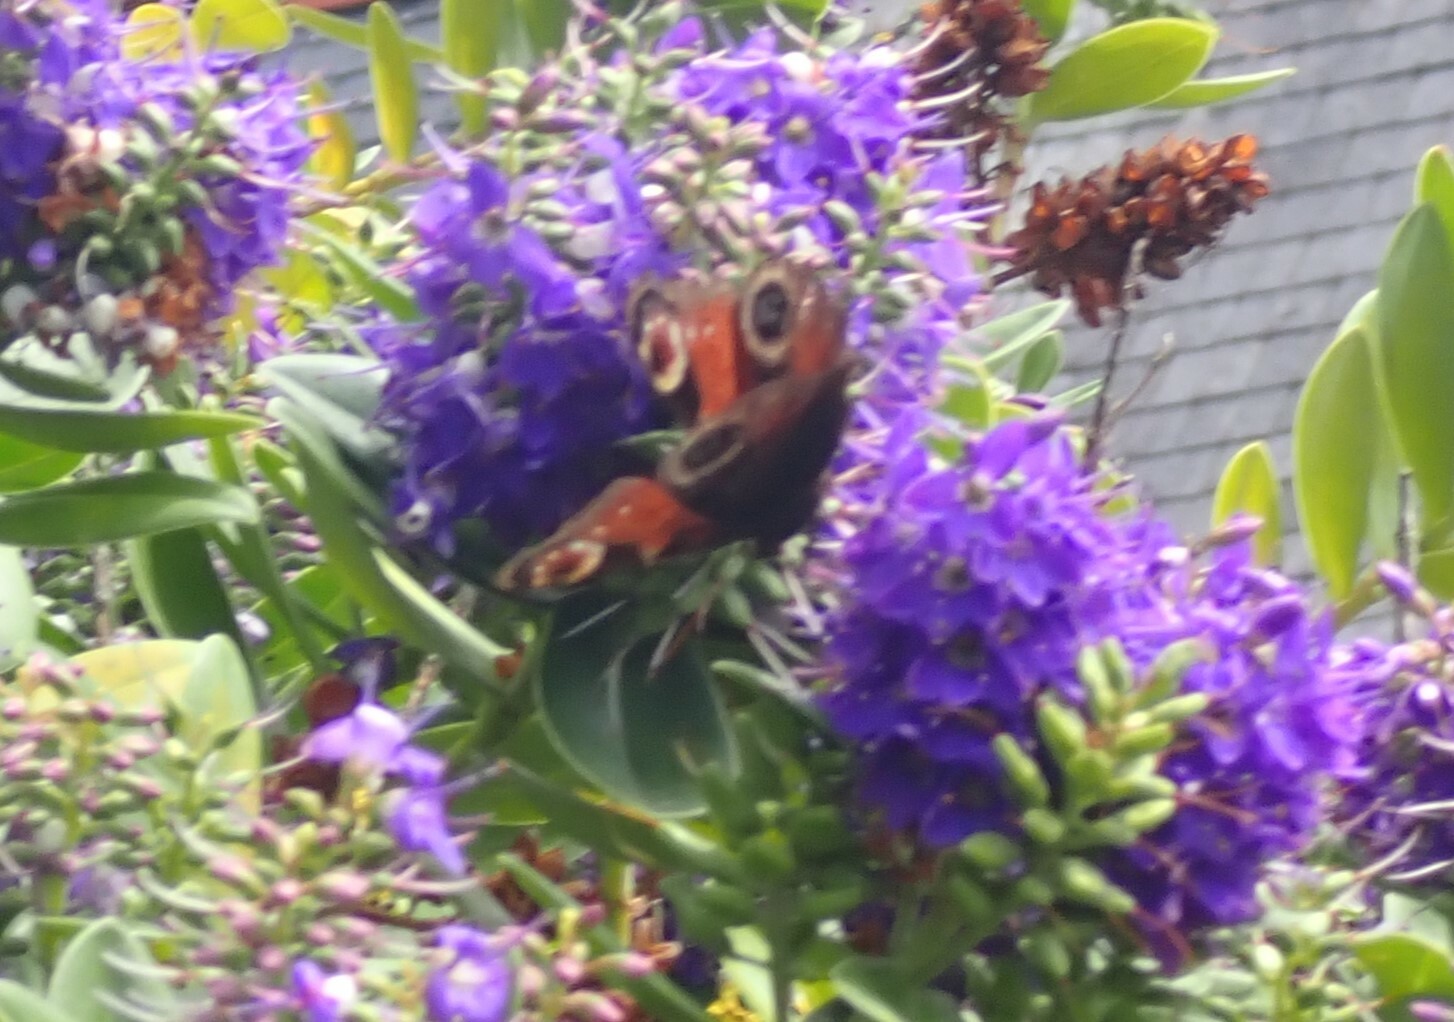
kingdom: Animalia
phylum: Arthropoda
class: Insecta
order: Lepidoptera
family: Nymphalidae
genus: Aglais
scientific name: Aglais io
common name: Peacock
